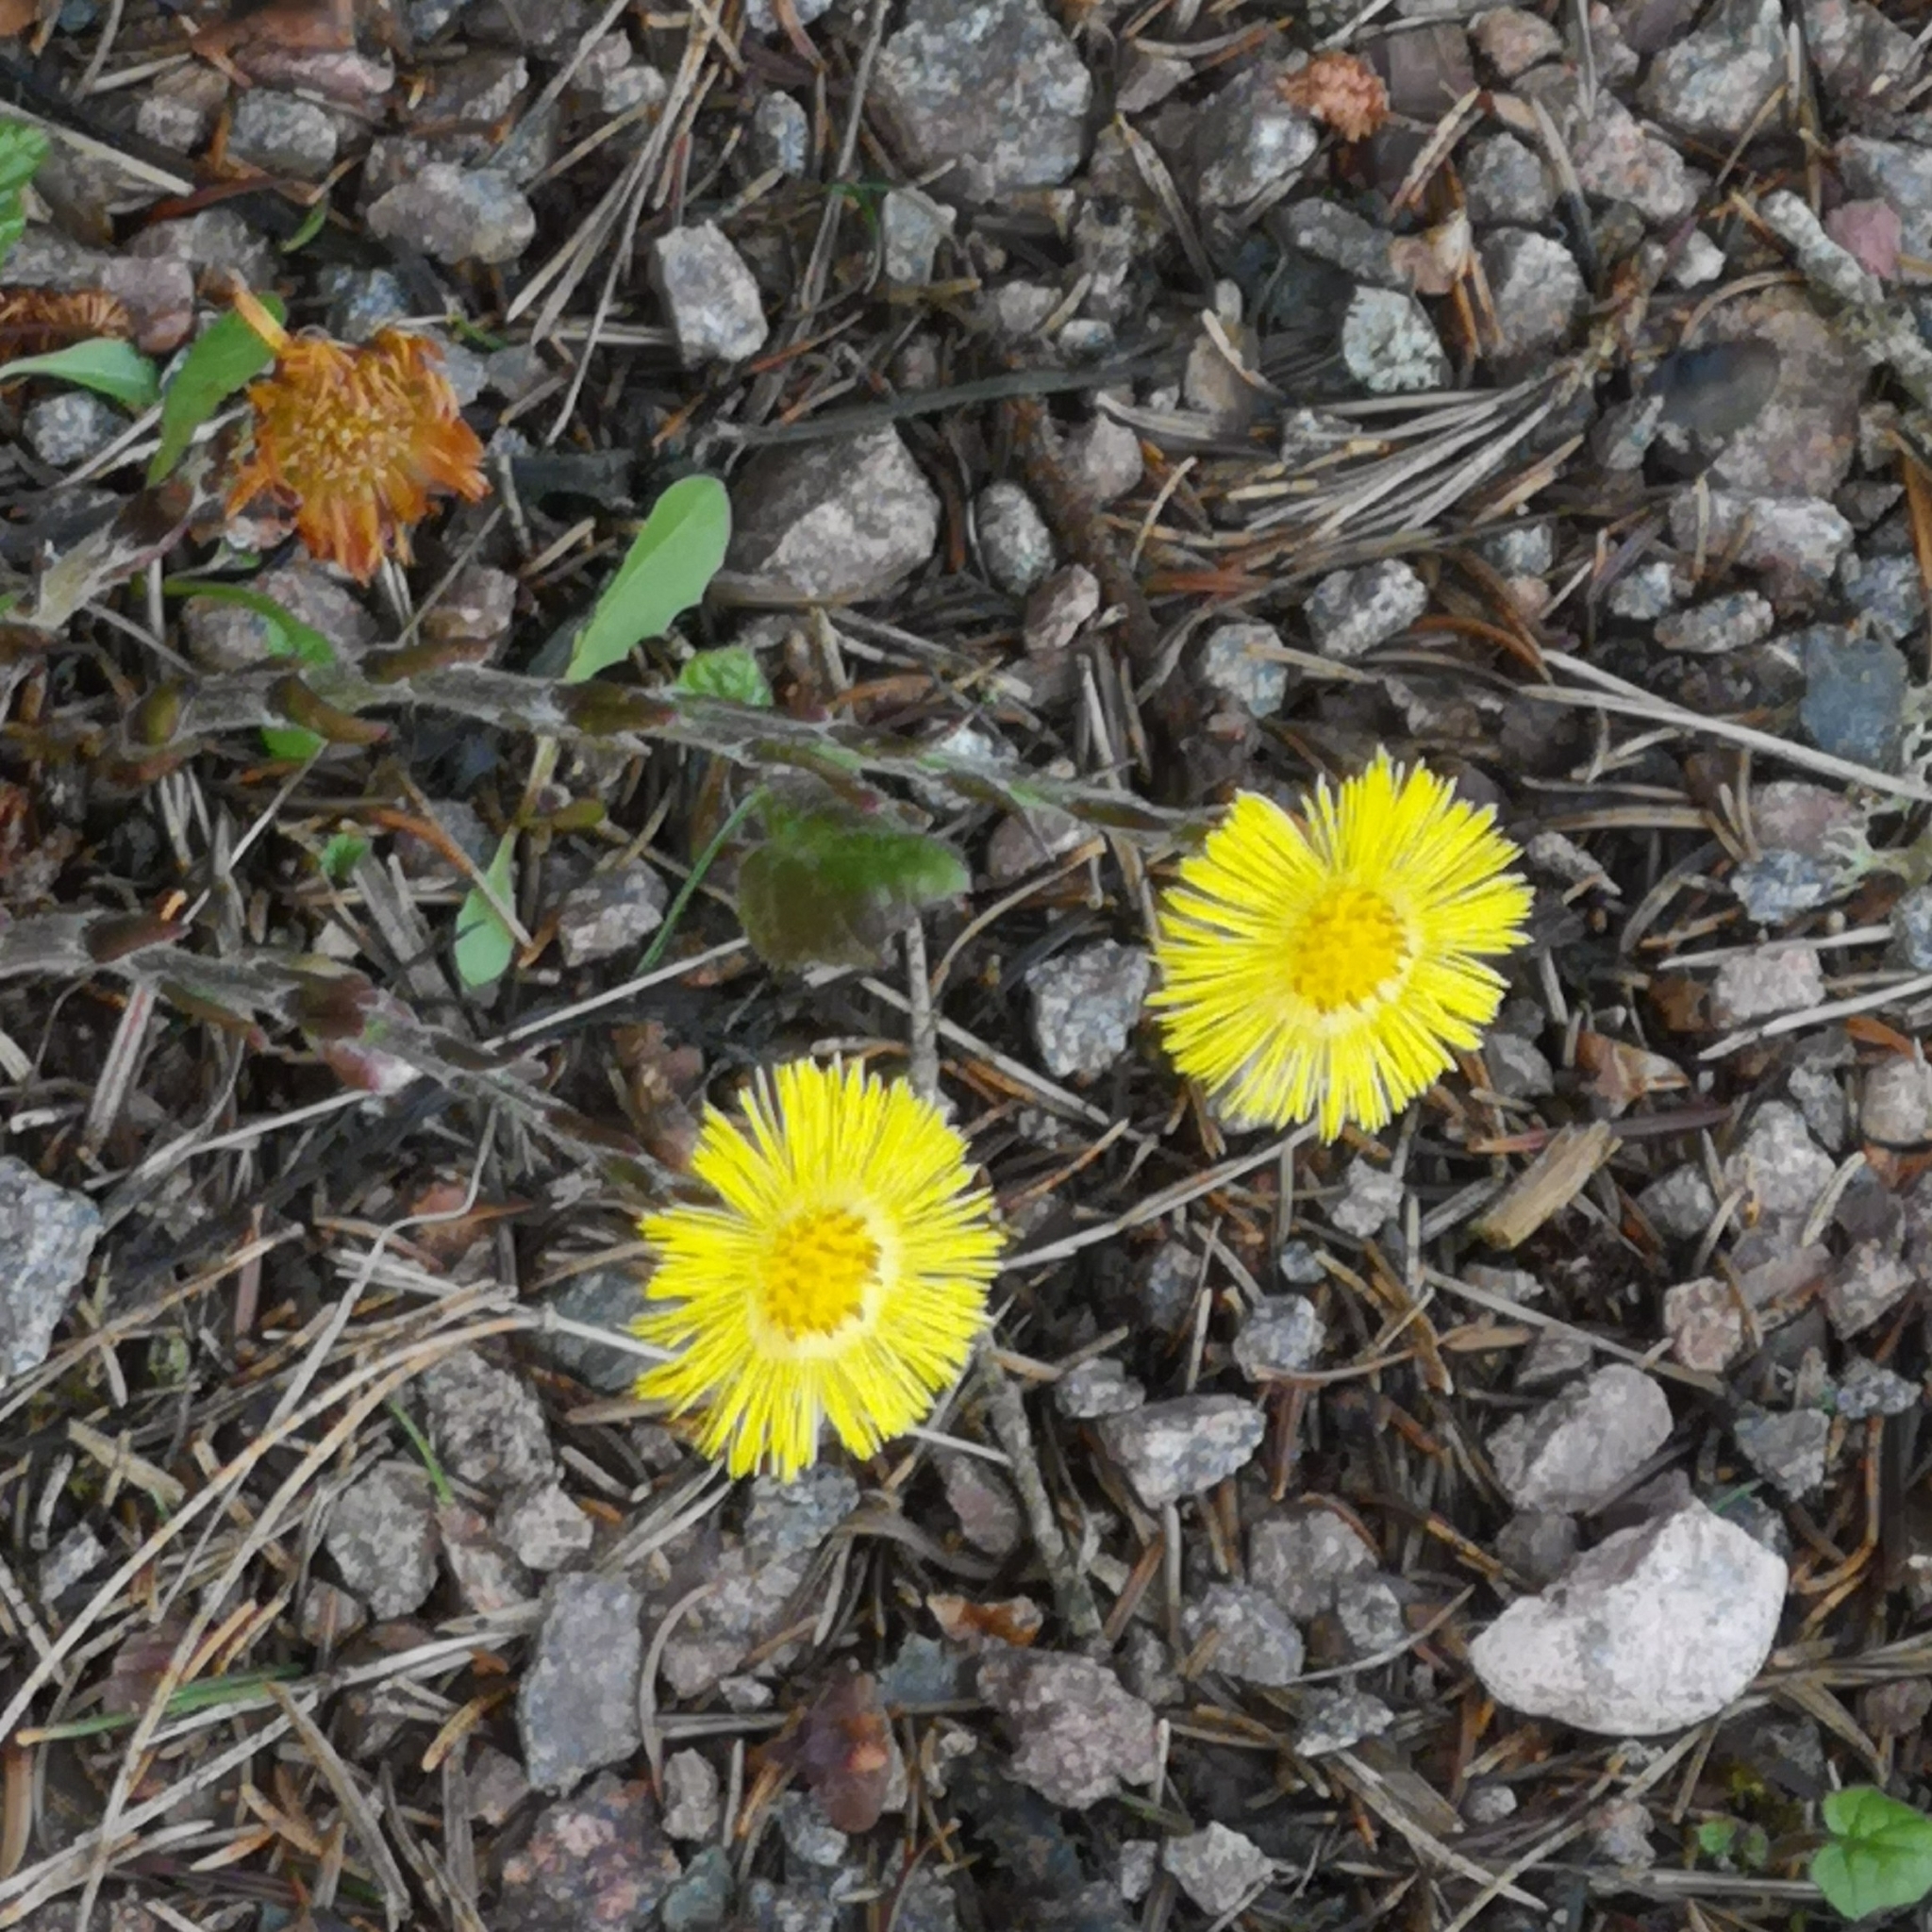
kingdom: Plantae
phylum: Tracheophyta
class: Magnoliopsida
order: Asterales
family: Asteraceae
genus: Tussilago
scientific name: Tussilago farfara
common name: Coltsfoot
